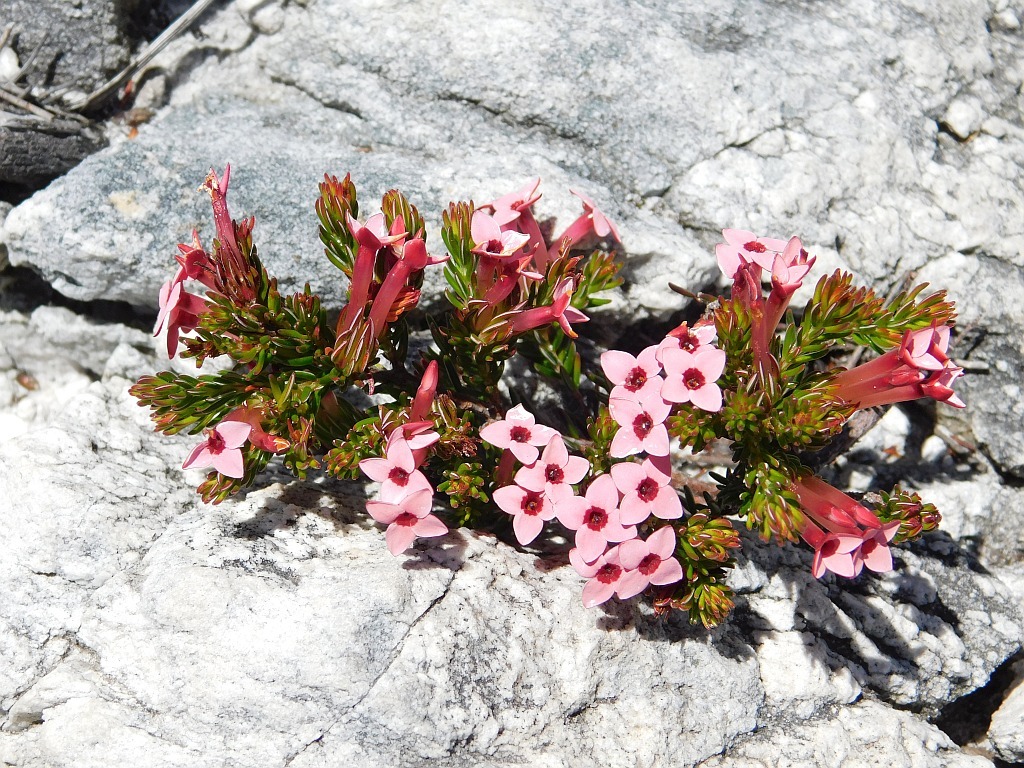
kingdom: Plantae
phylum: Tracheophyta
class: Magnoliopsida
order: Ericales
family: Ericaceae
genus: Erica
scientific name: Erica fastigiata
